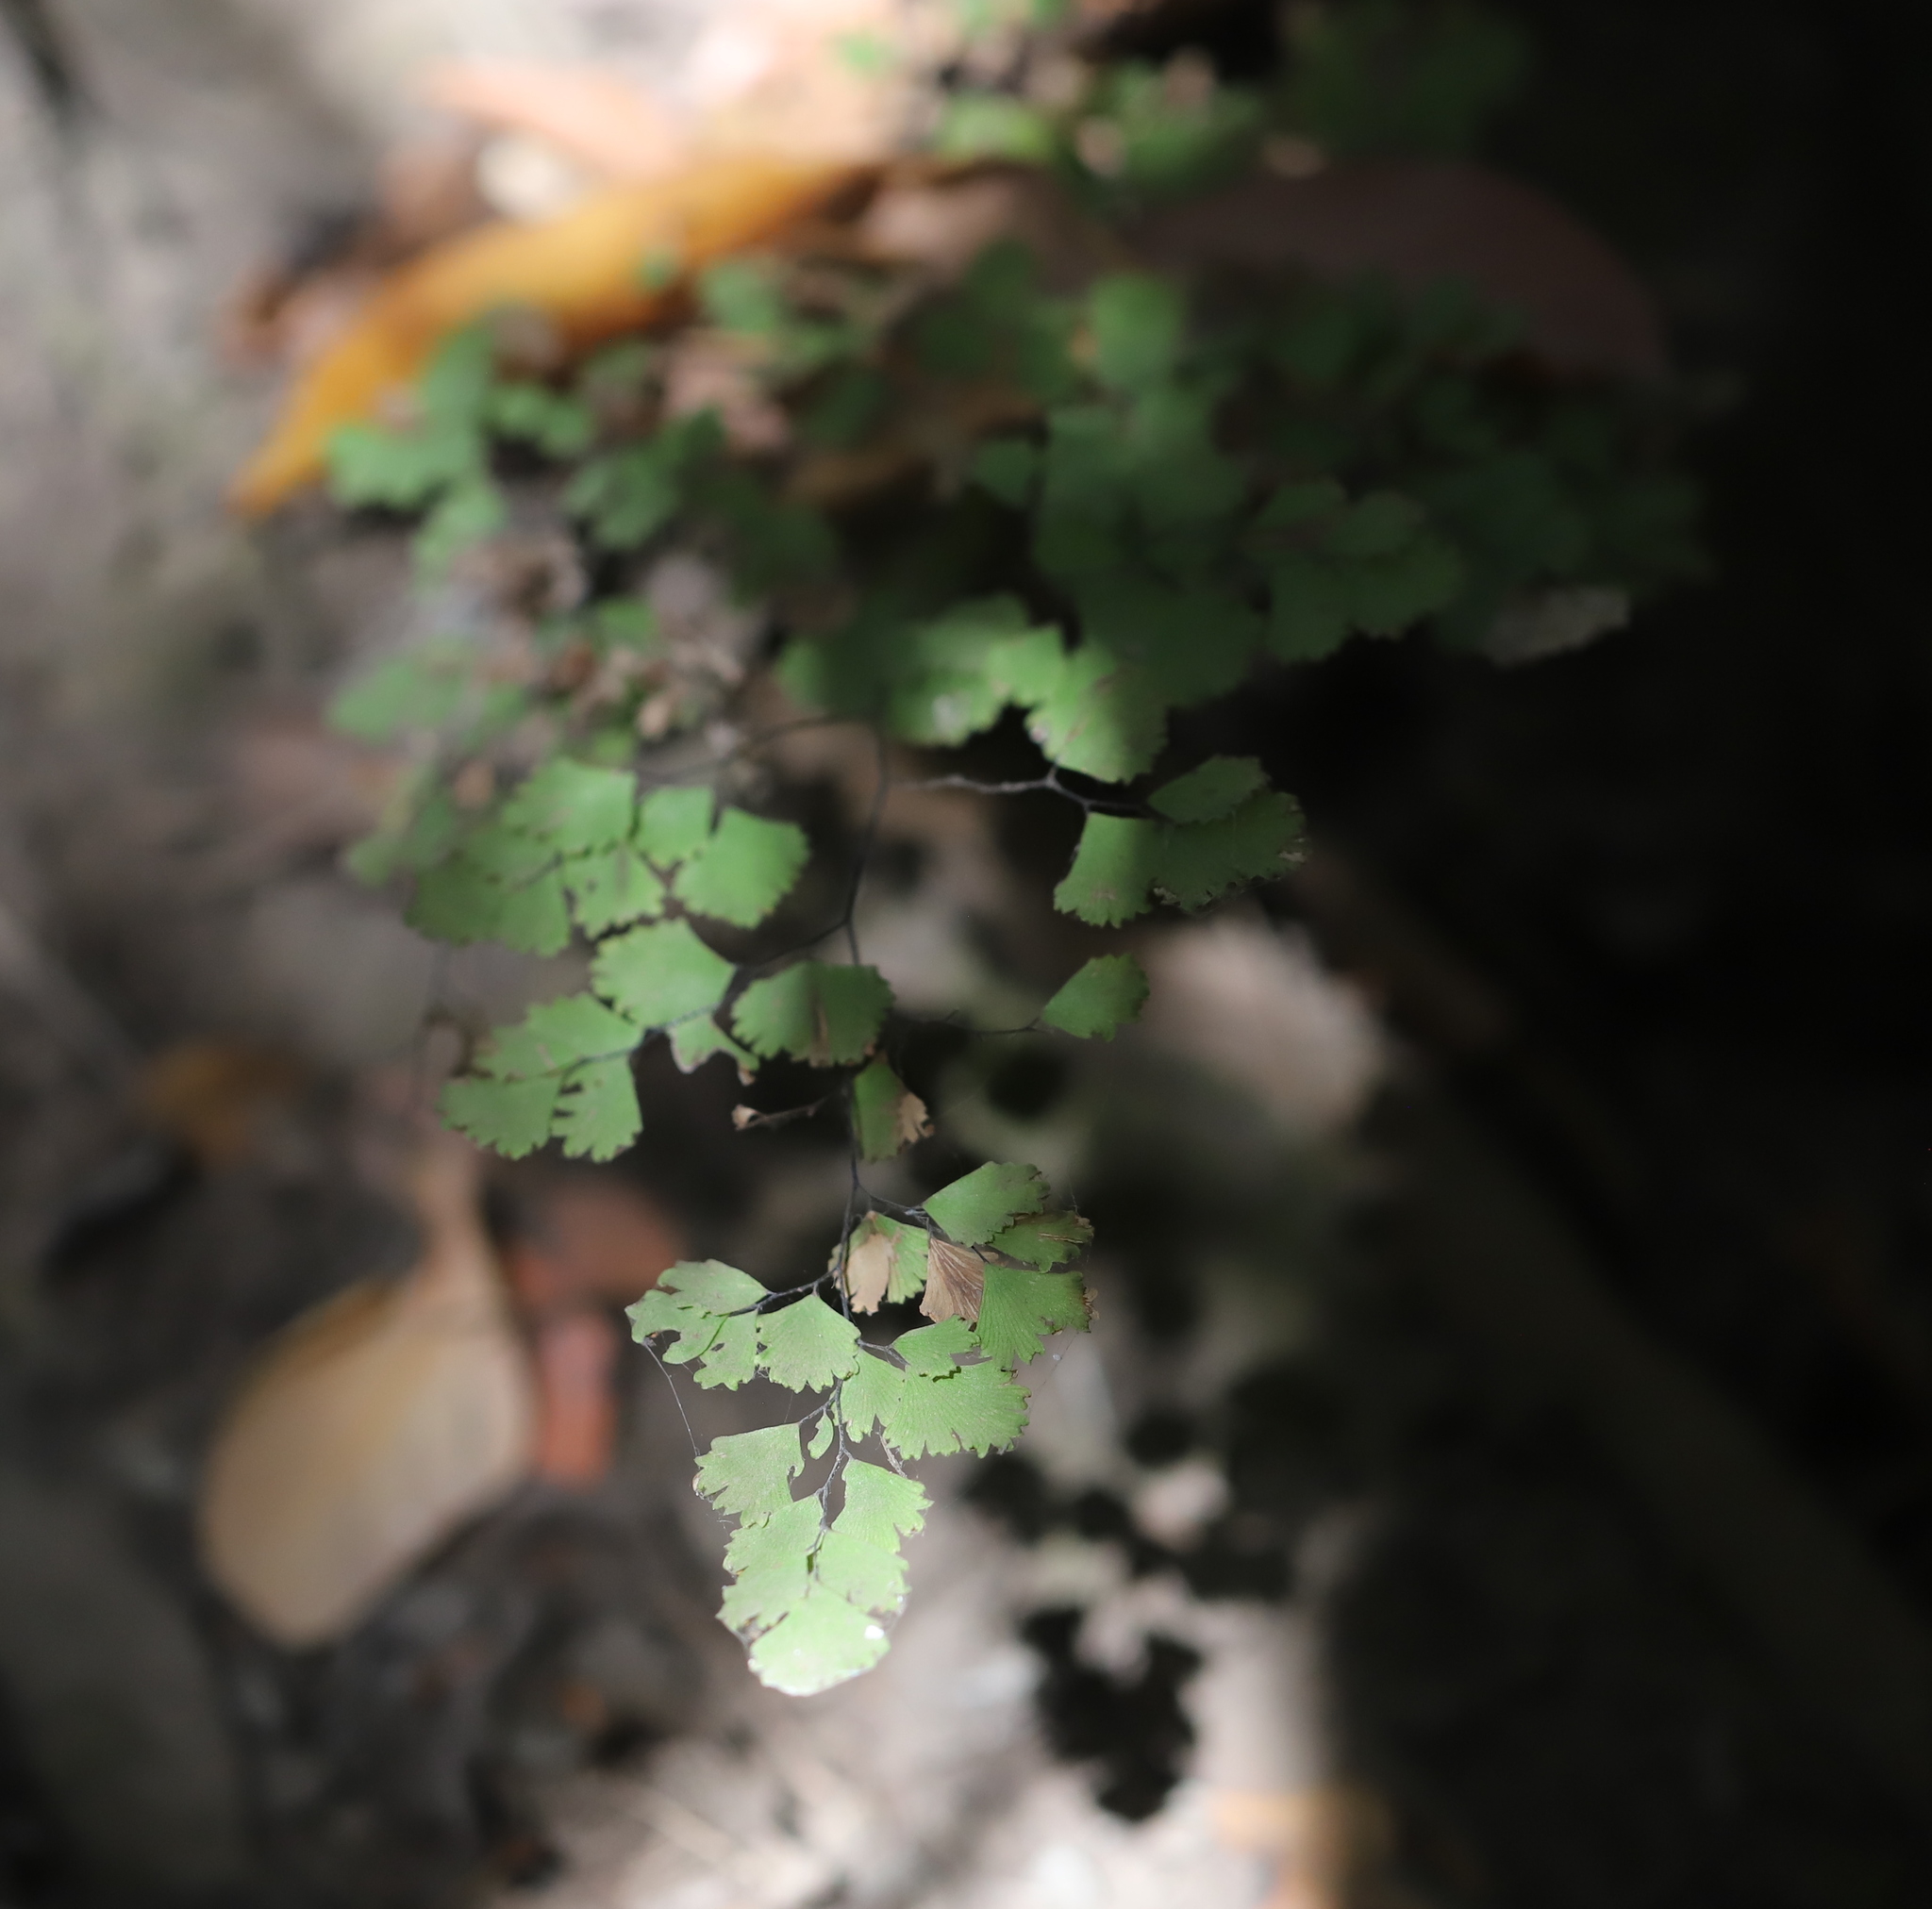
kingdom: Plantae
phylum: Tracheophyta
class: Polypodiopsida
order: Polypodiales
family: Pteridaceae
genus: Adiantum
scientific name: Adiantum chilense
